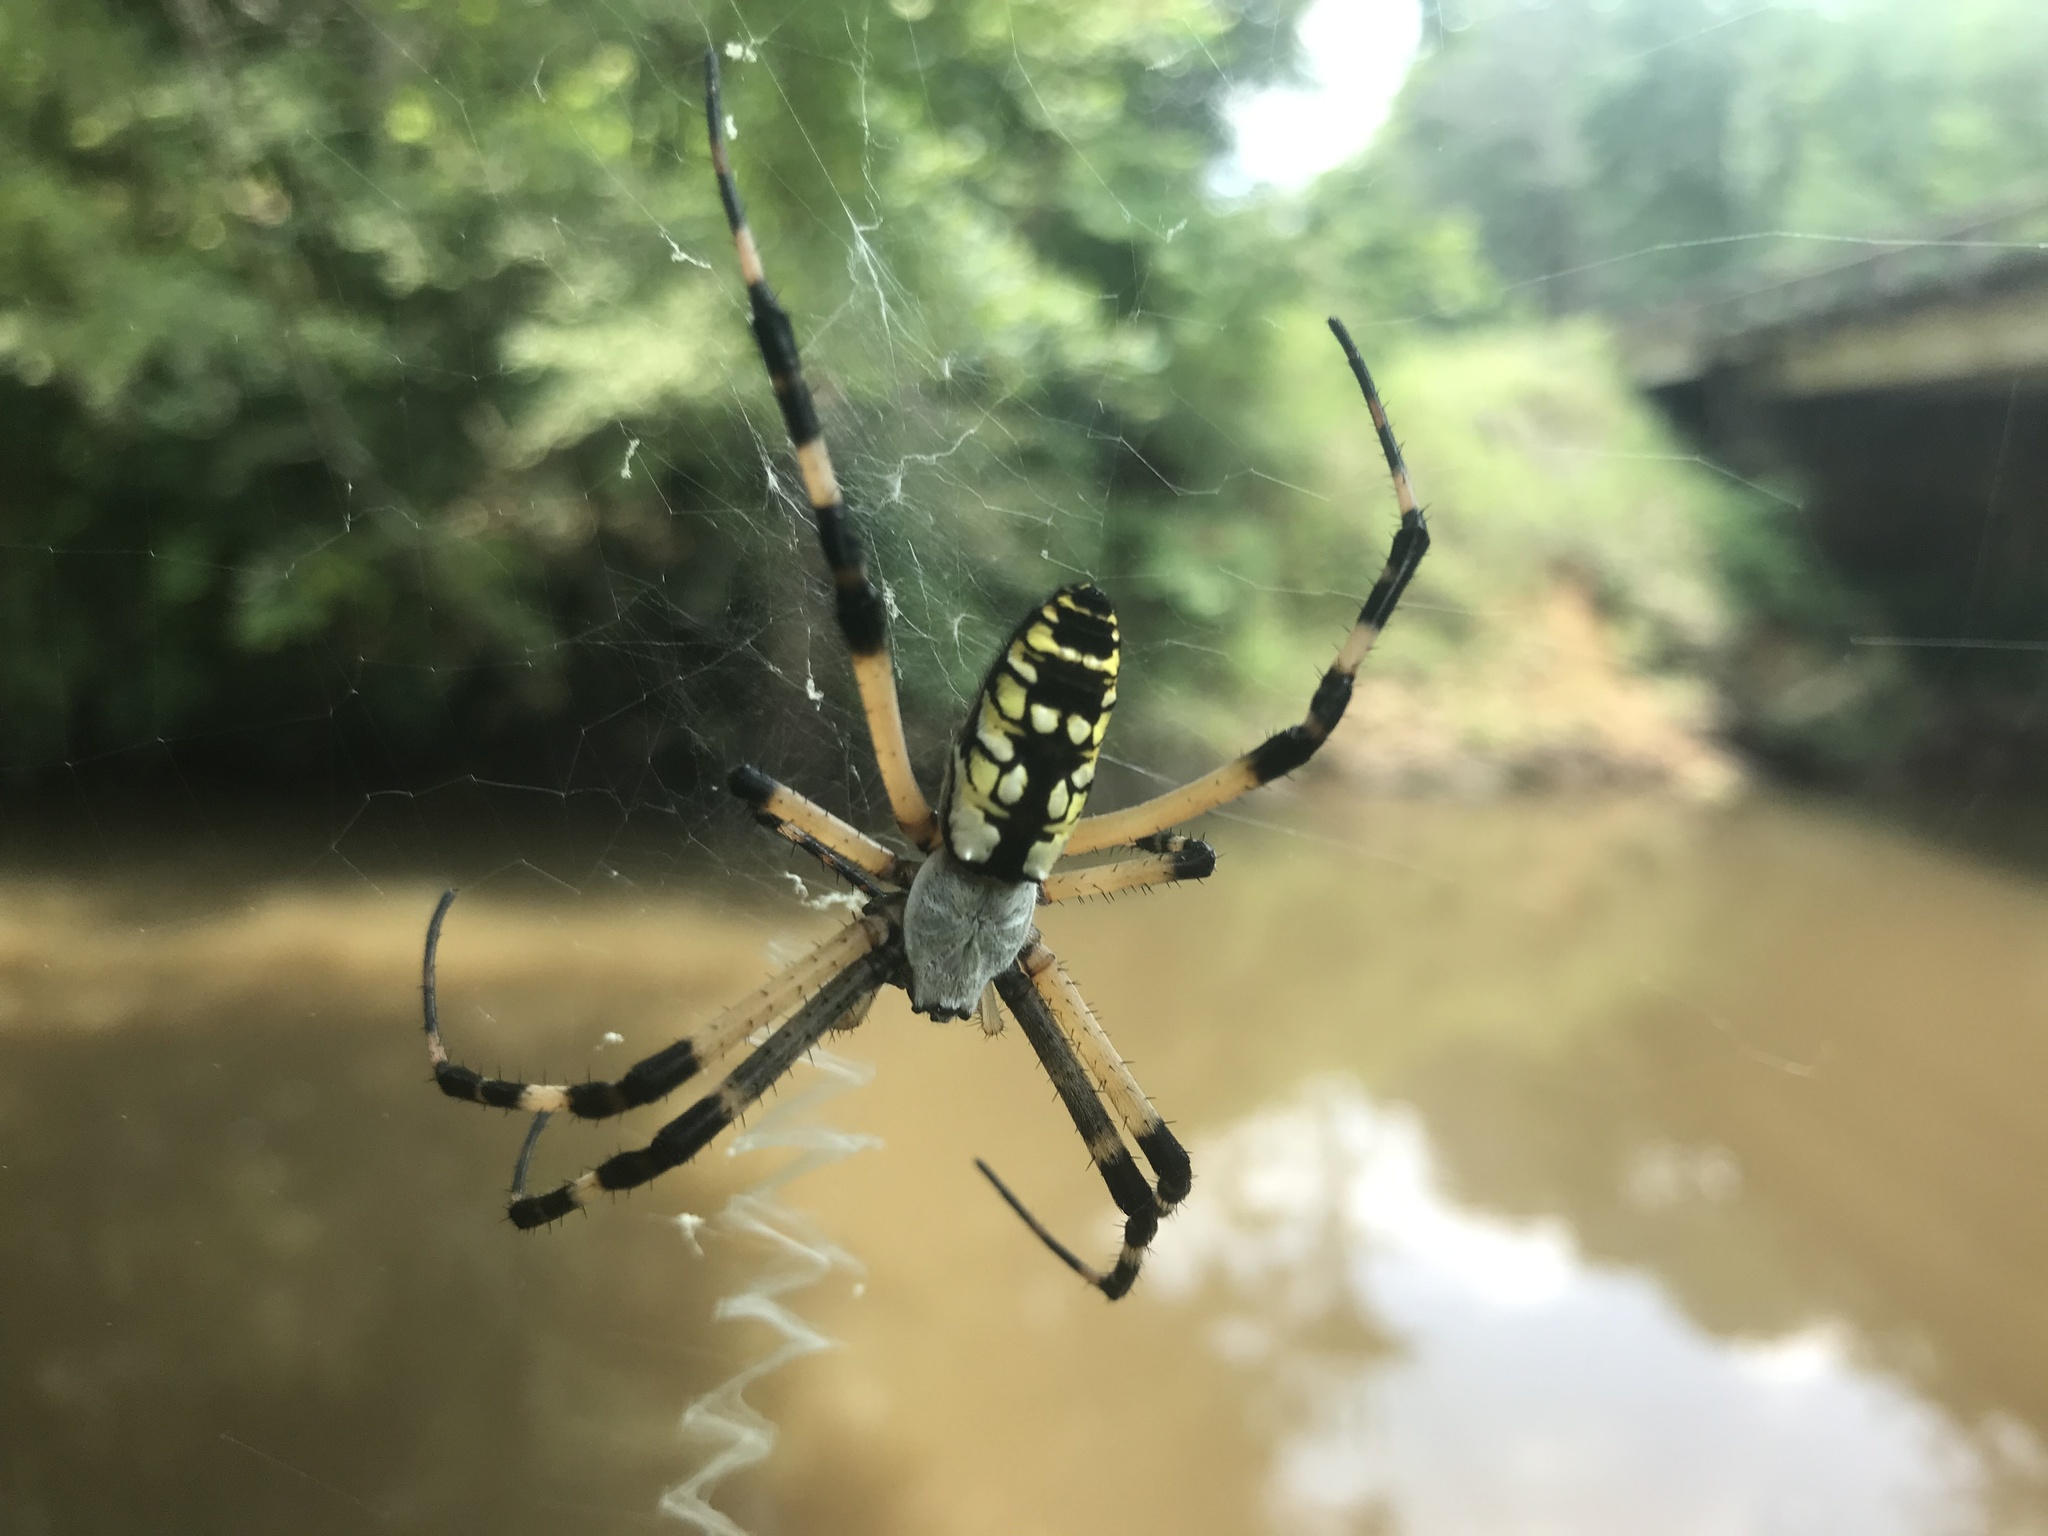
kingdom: Animalia
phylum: Arthropoda
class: Arachnida
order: Araneae
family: Araneidae
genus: Argiope
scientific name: Argiope aurantia
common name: Orb weavers
